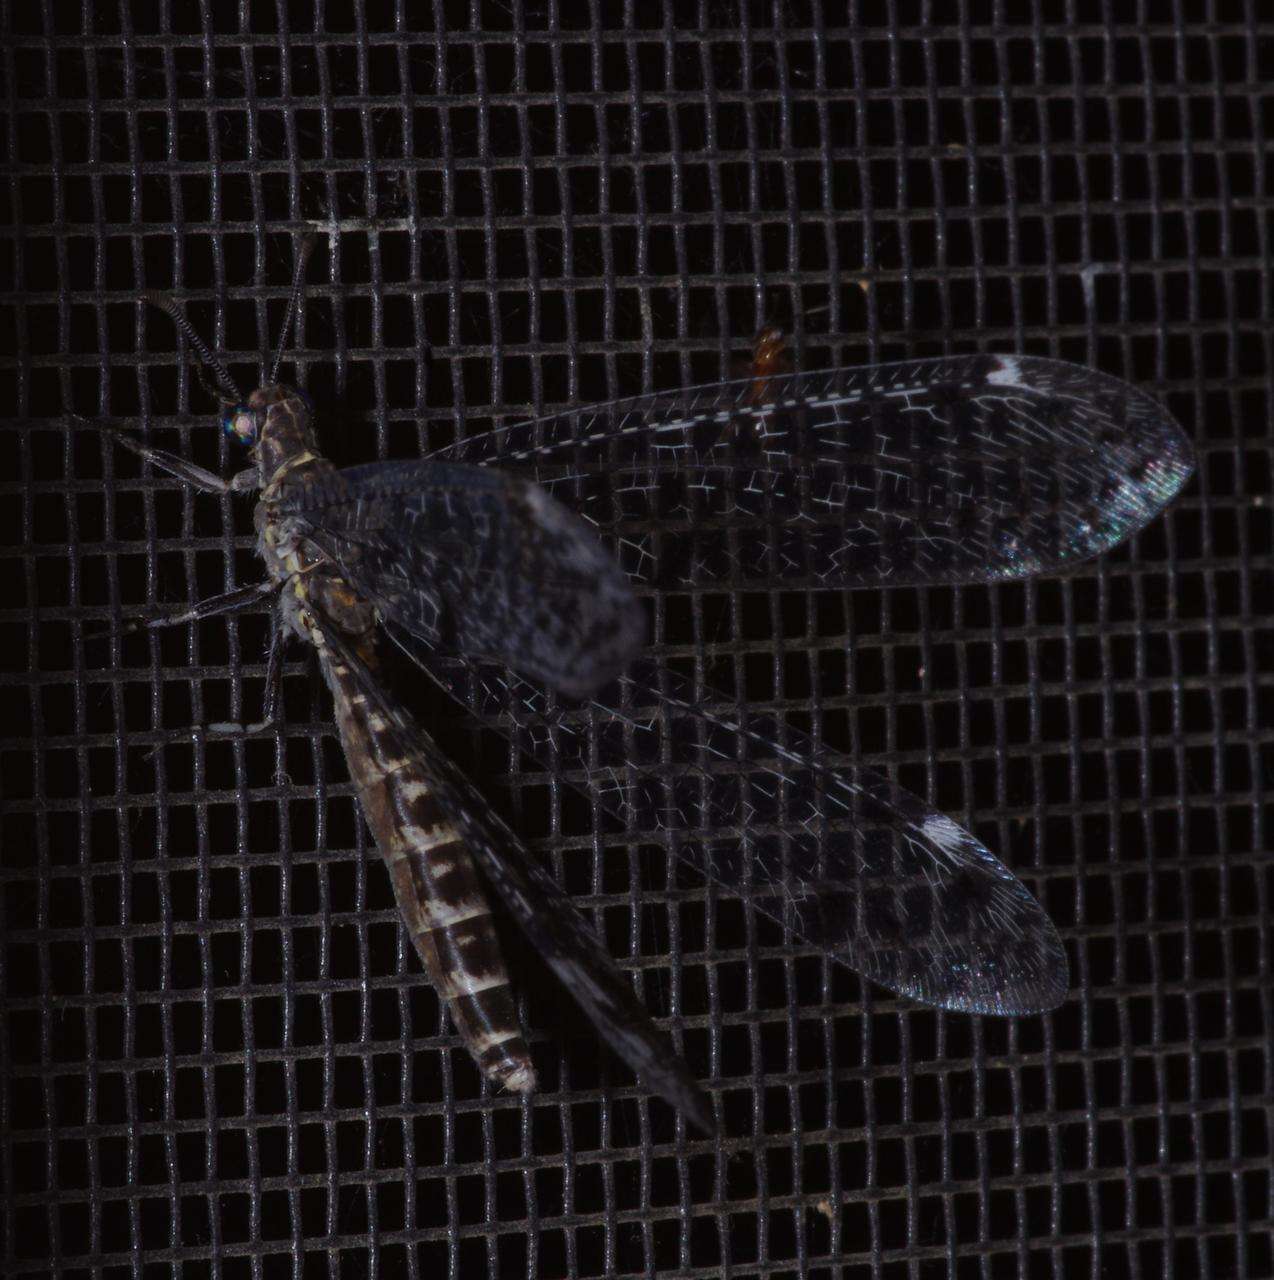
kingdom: Animalia
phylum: Arthropoda
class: Insecta
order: Neuroptera
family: Myrmeleontidae
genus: Bandidus
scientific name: Bandidus breviusculus
